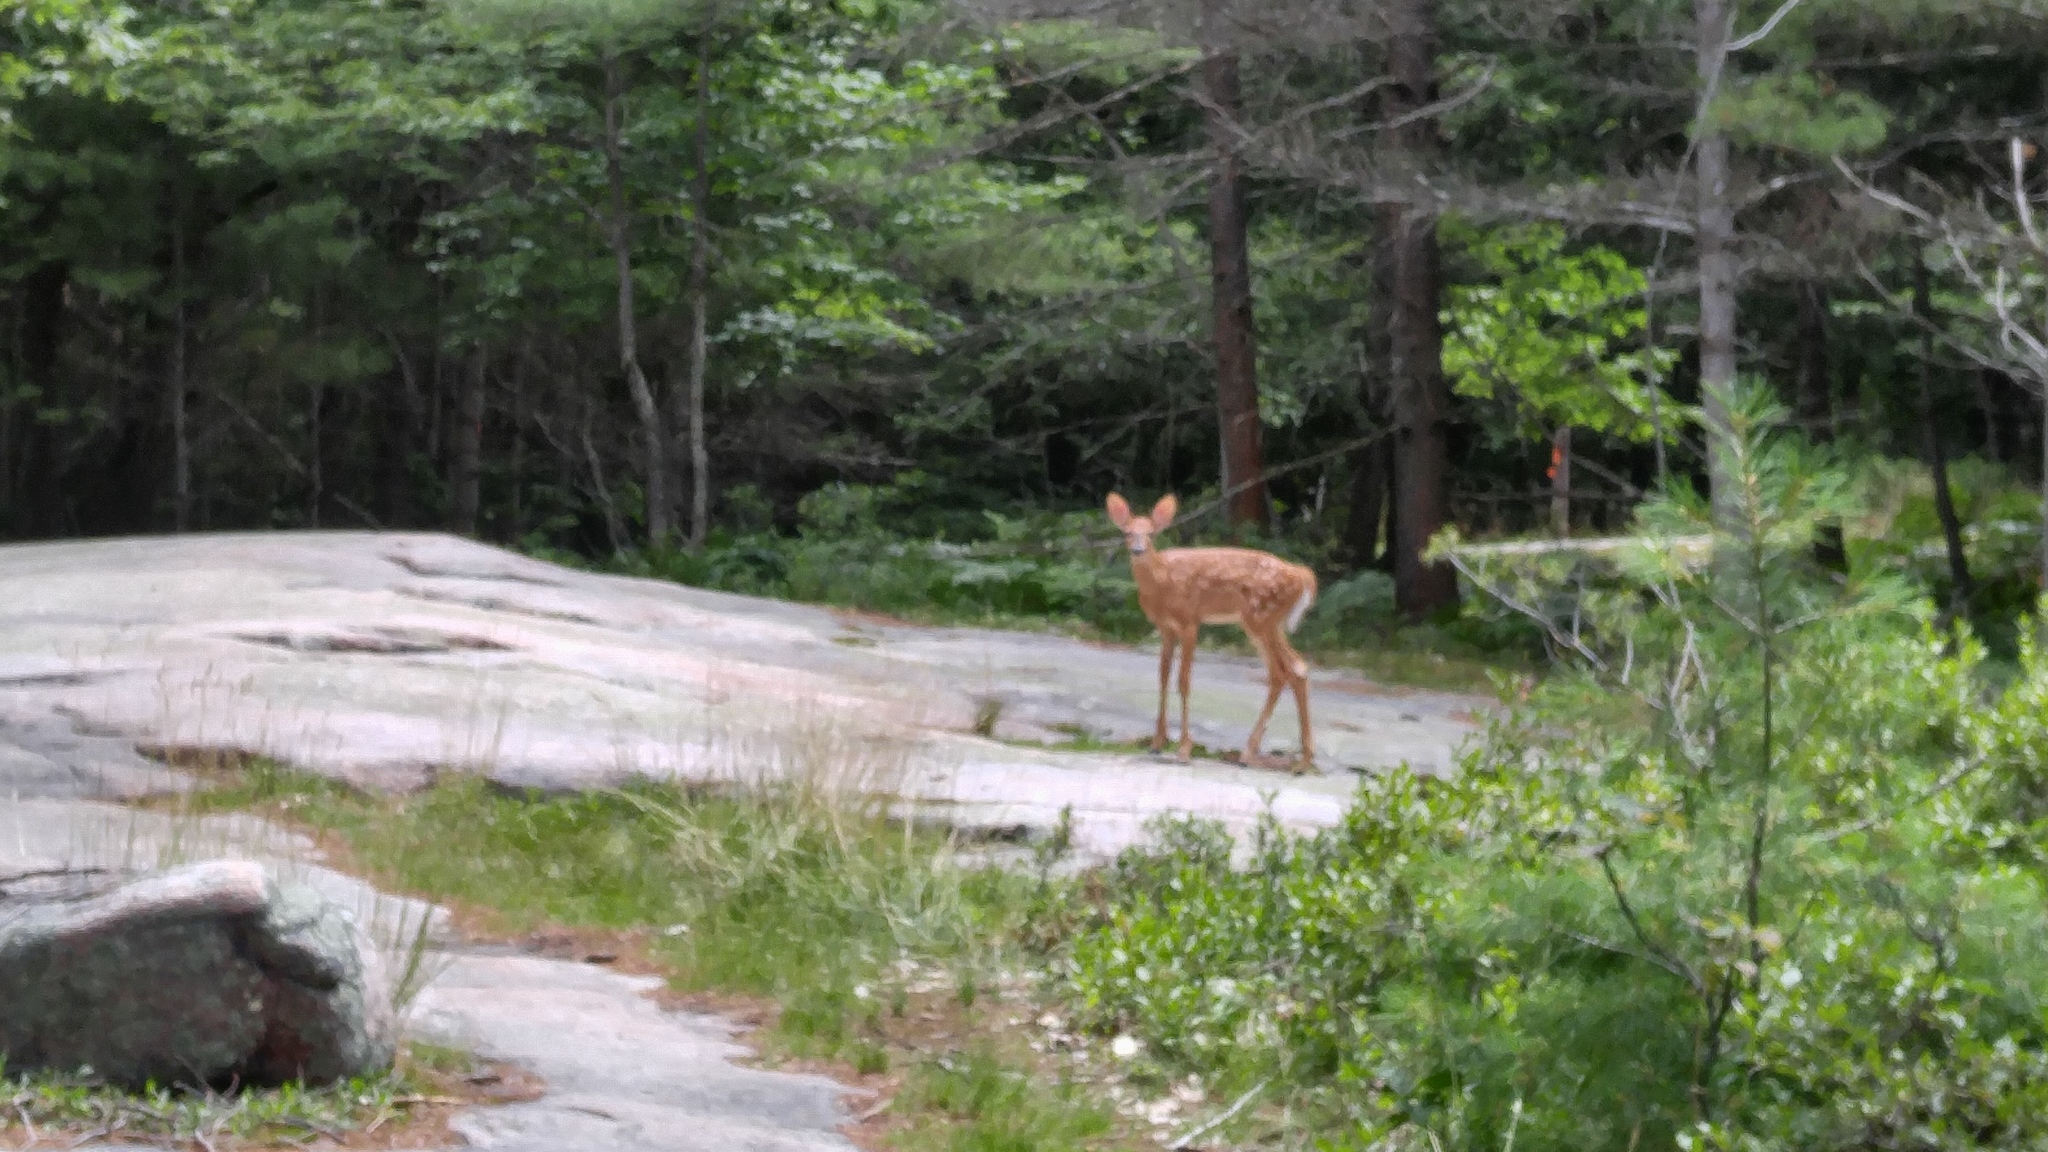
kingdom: Animalia
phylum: Chordata
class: Mammalia
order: Artiodactyla
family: Cervidae
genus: Odocoileus
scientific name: Odocoileus virginianus
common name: White-tailed deer
